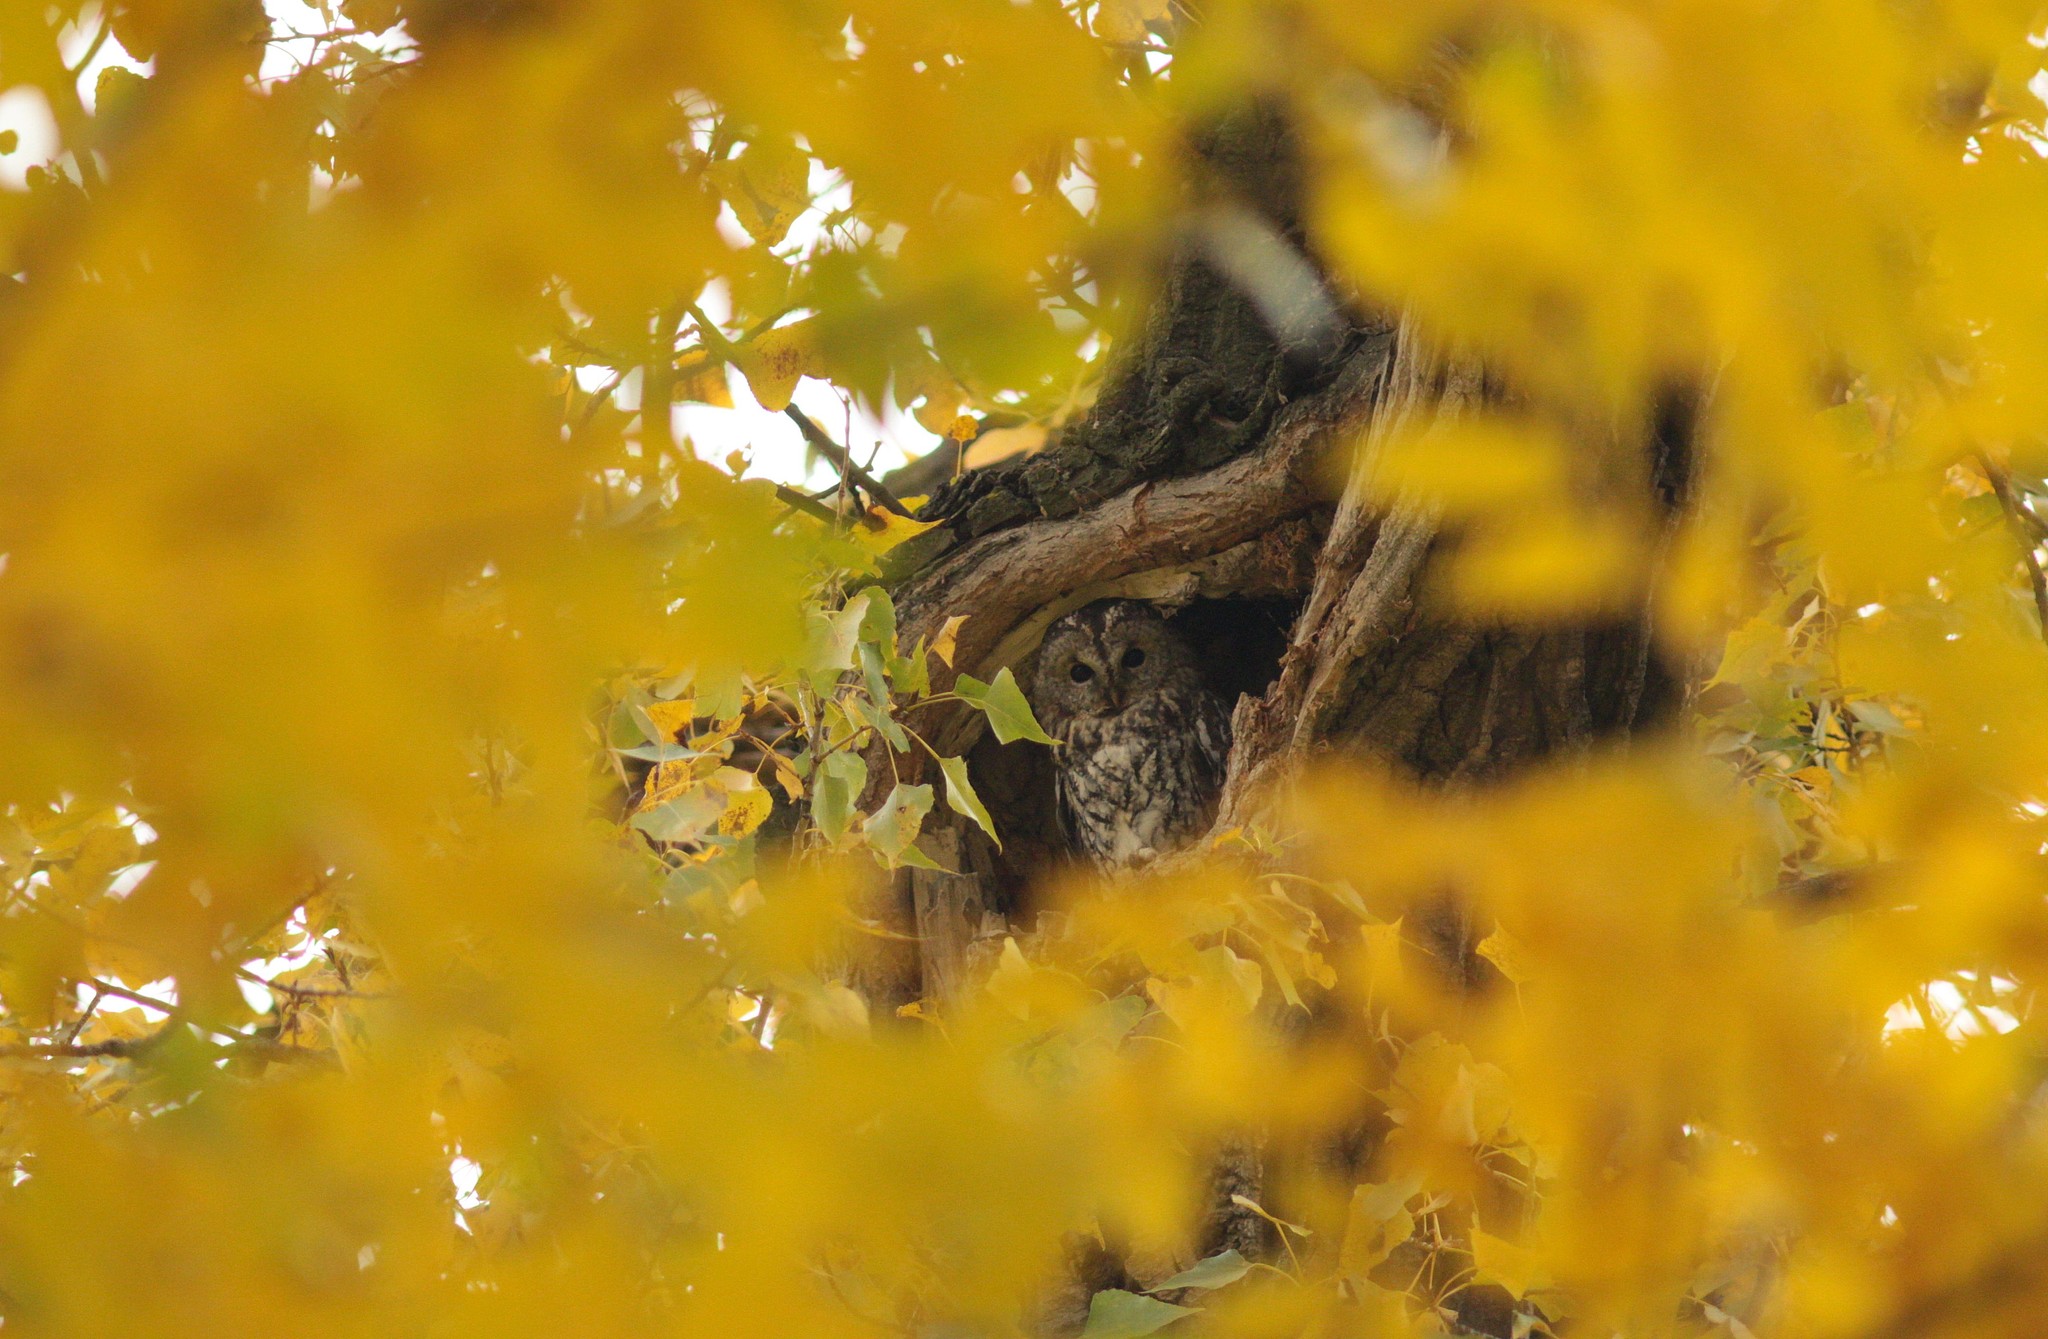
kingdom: Animalia
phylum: Chordata
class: Aves
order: Strigiformes
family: Strigidae
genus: Strix
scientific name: Strix aluco
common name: Tawny owl
